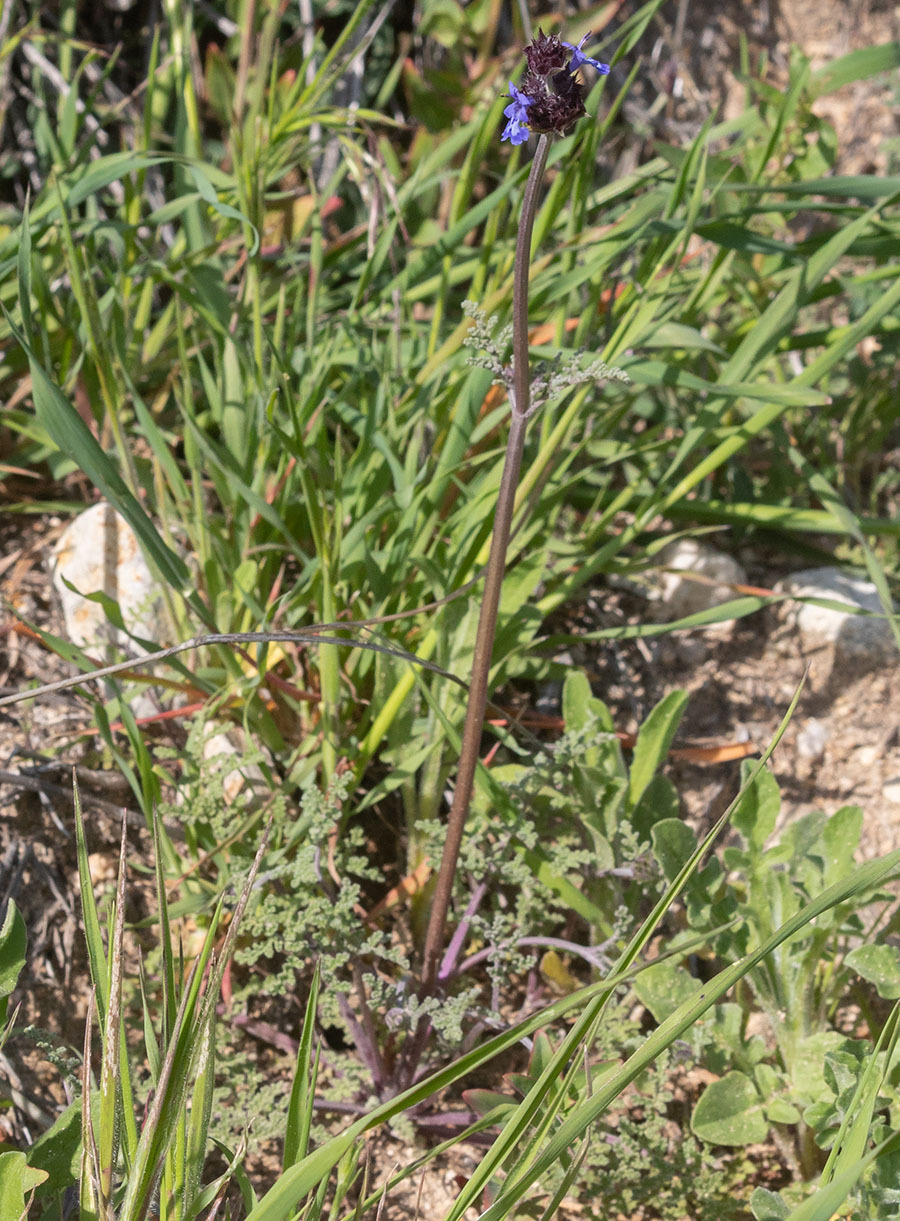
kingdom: Plantae
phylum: Tracheophyta
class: Magnoliopsida
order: Lamiales
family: Lamiaceae
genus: Salvia
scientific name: Salvia columbariae
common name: Chia
